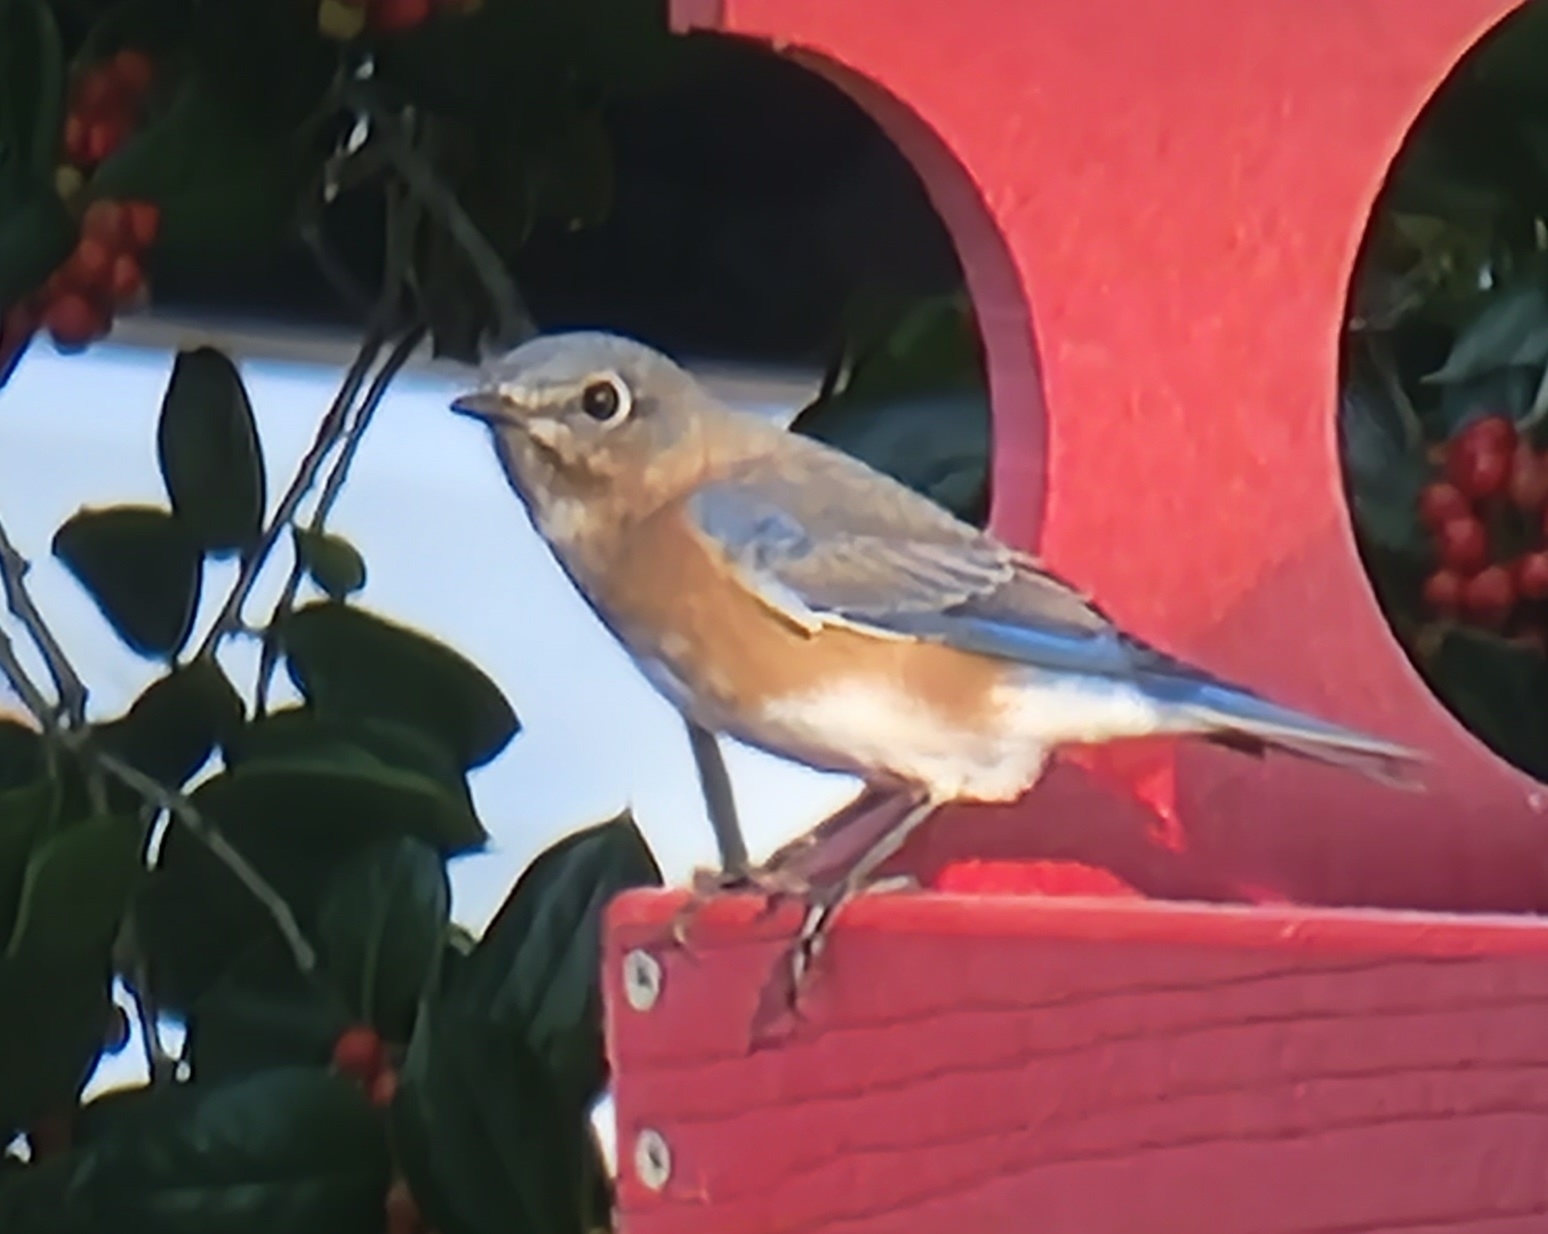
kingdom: Animalia
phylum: Chordata
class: Aves
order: Passeriformes
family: Turdidae
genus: Sialia
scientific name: Sialia sialis
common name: Eastern bluebird
